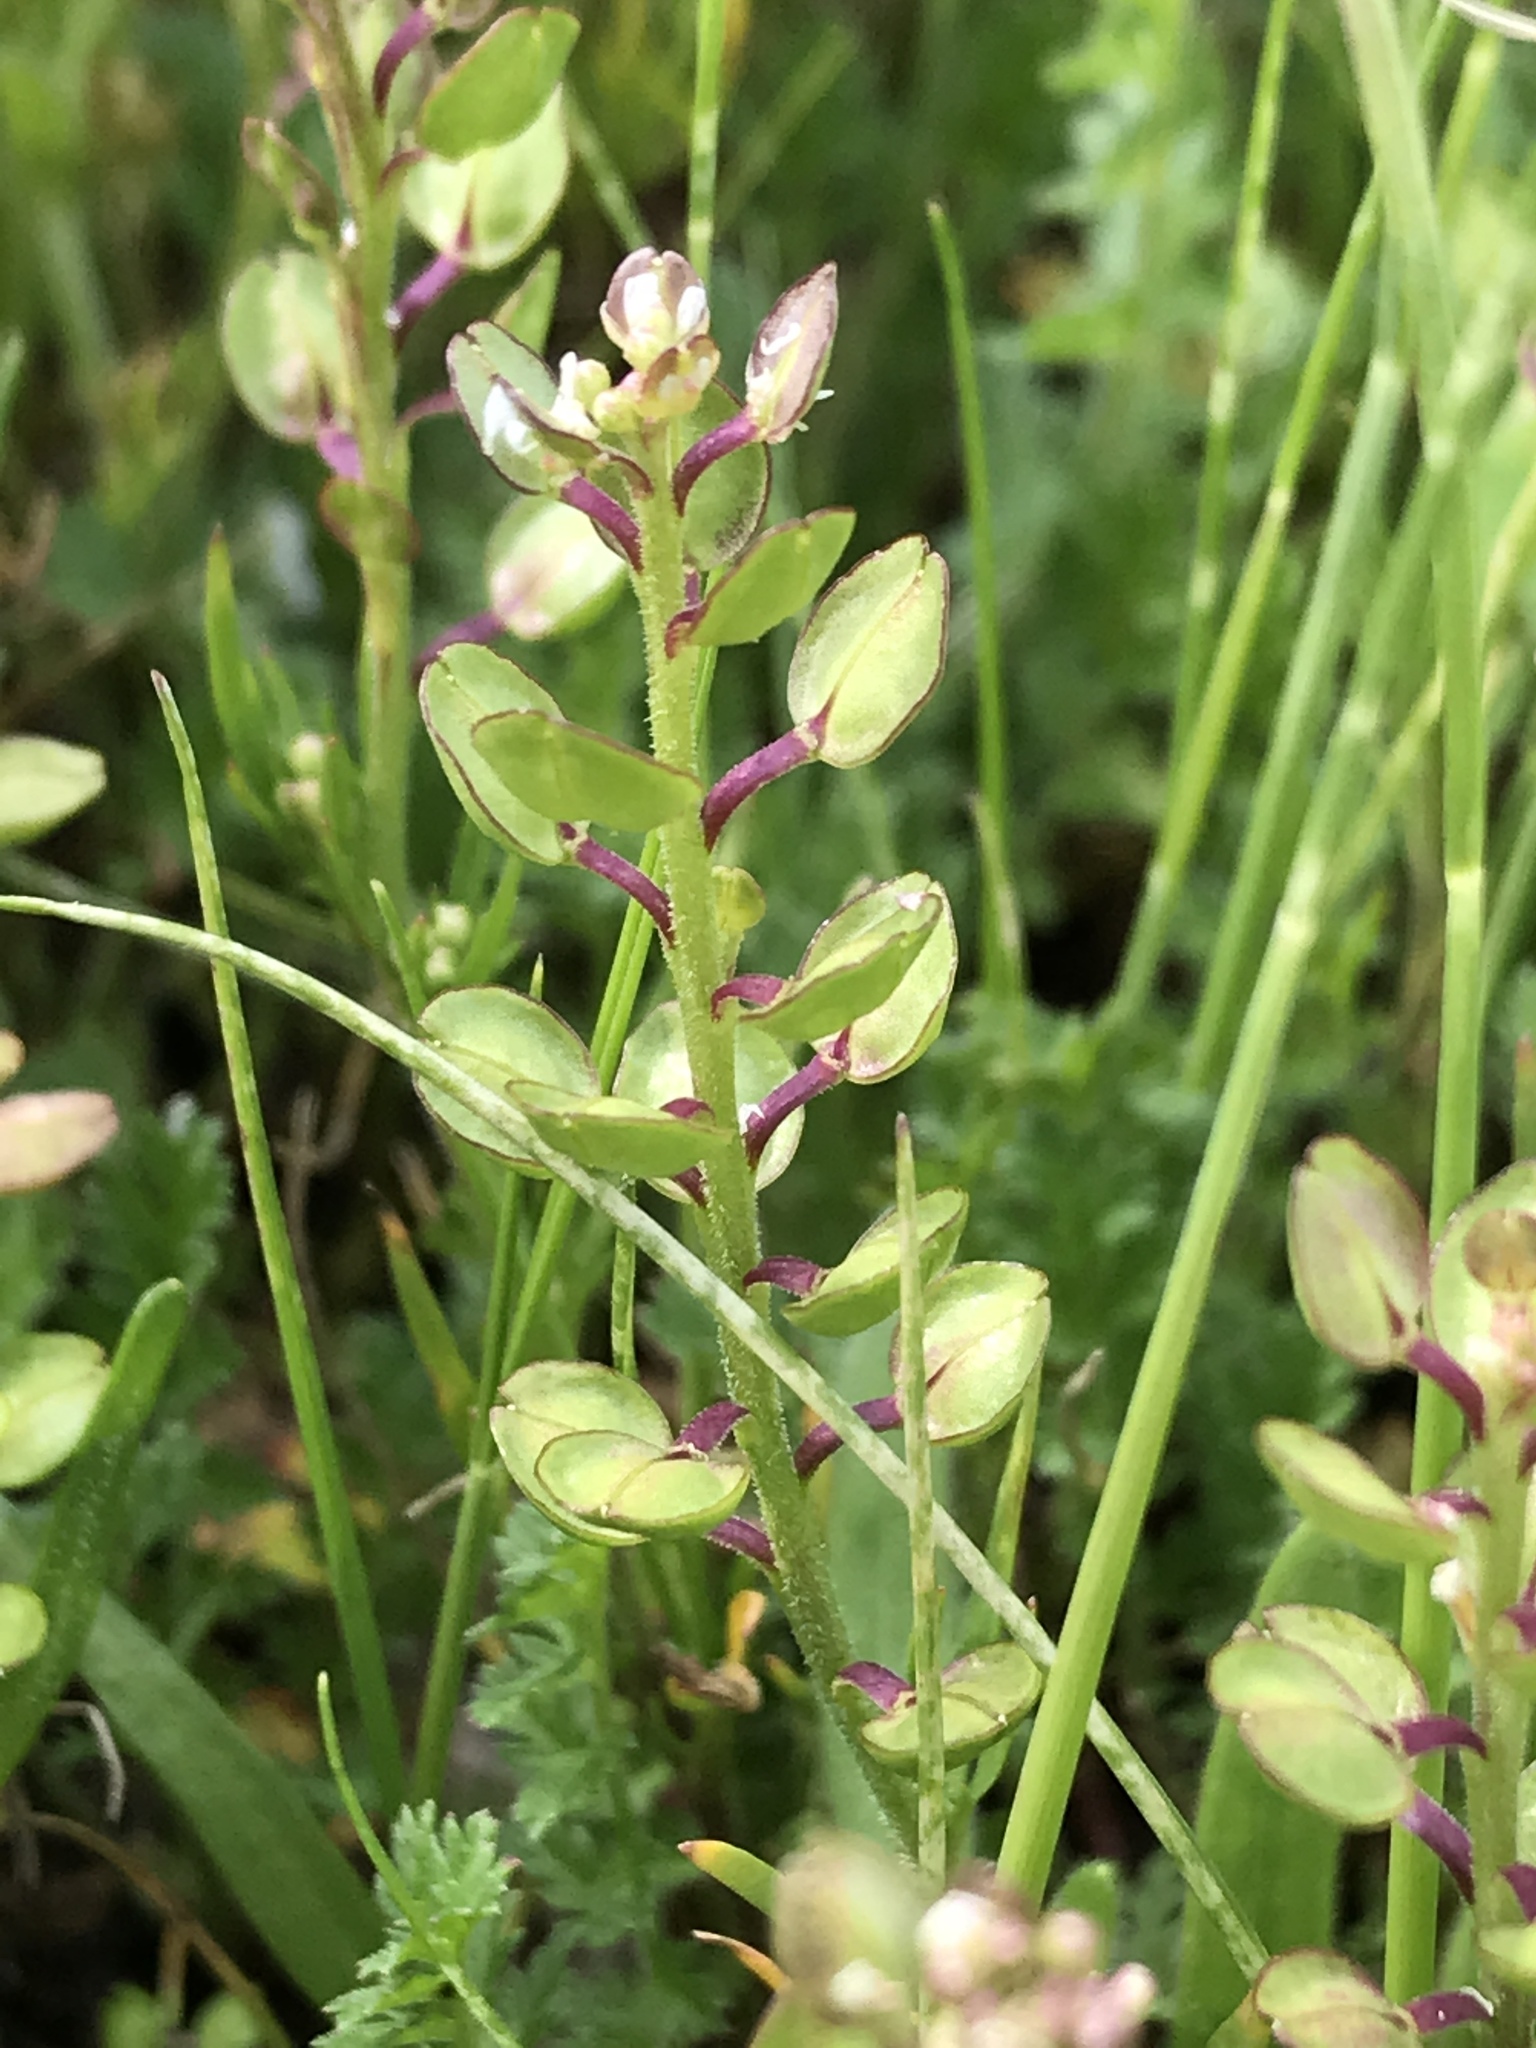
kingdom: Plantae
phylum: Tracheophyta
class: Magnoliopsida
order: Brassicales
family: Brassicaceae
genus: Lepidium
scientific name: Lepidium nitidum
